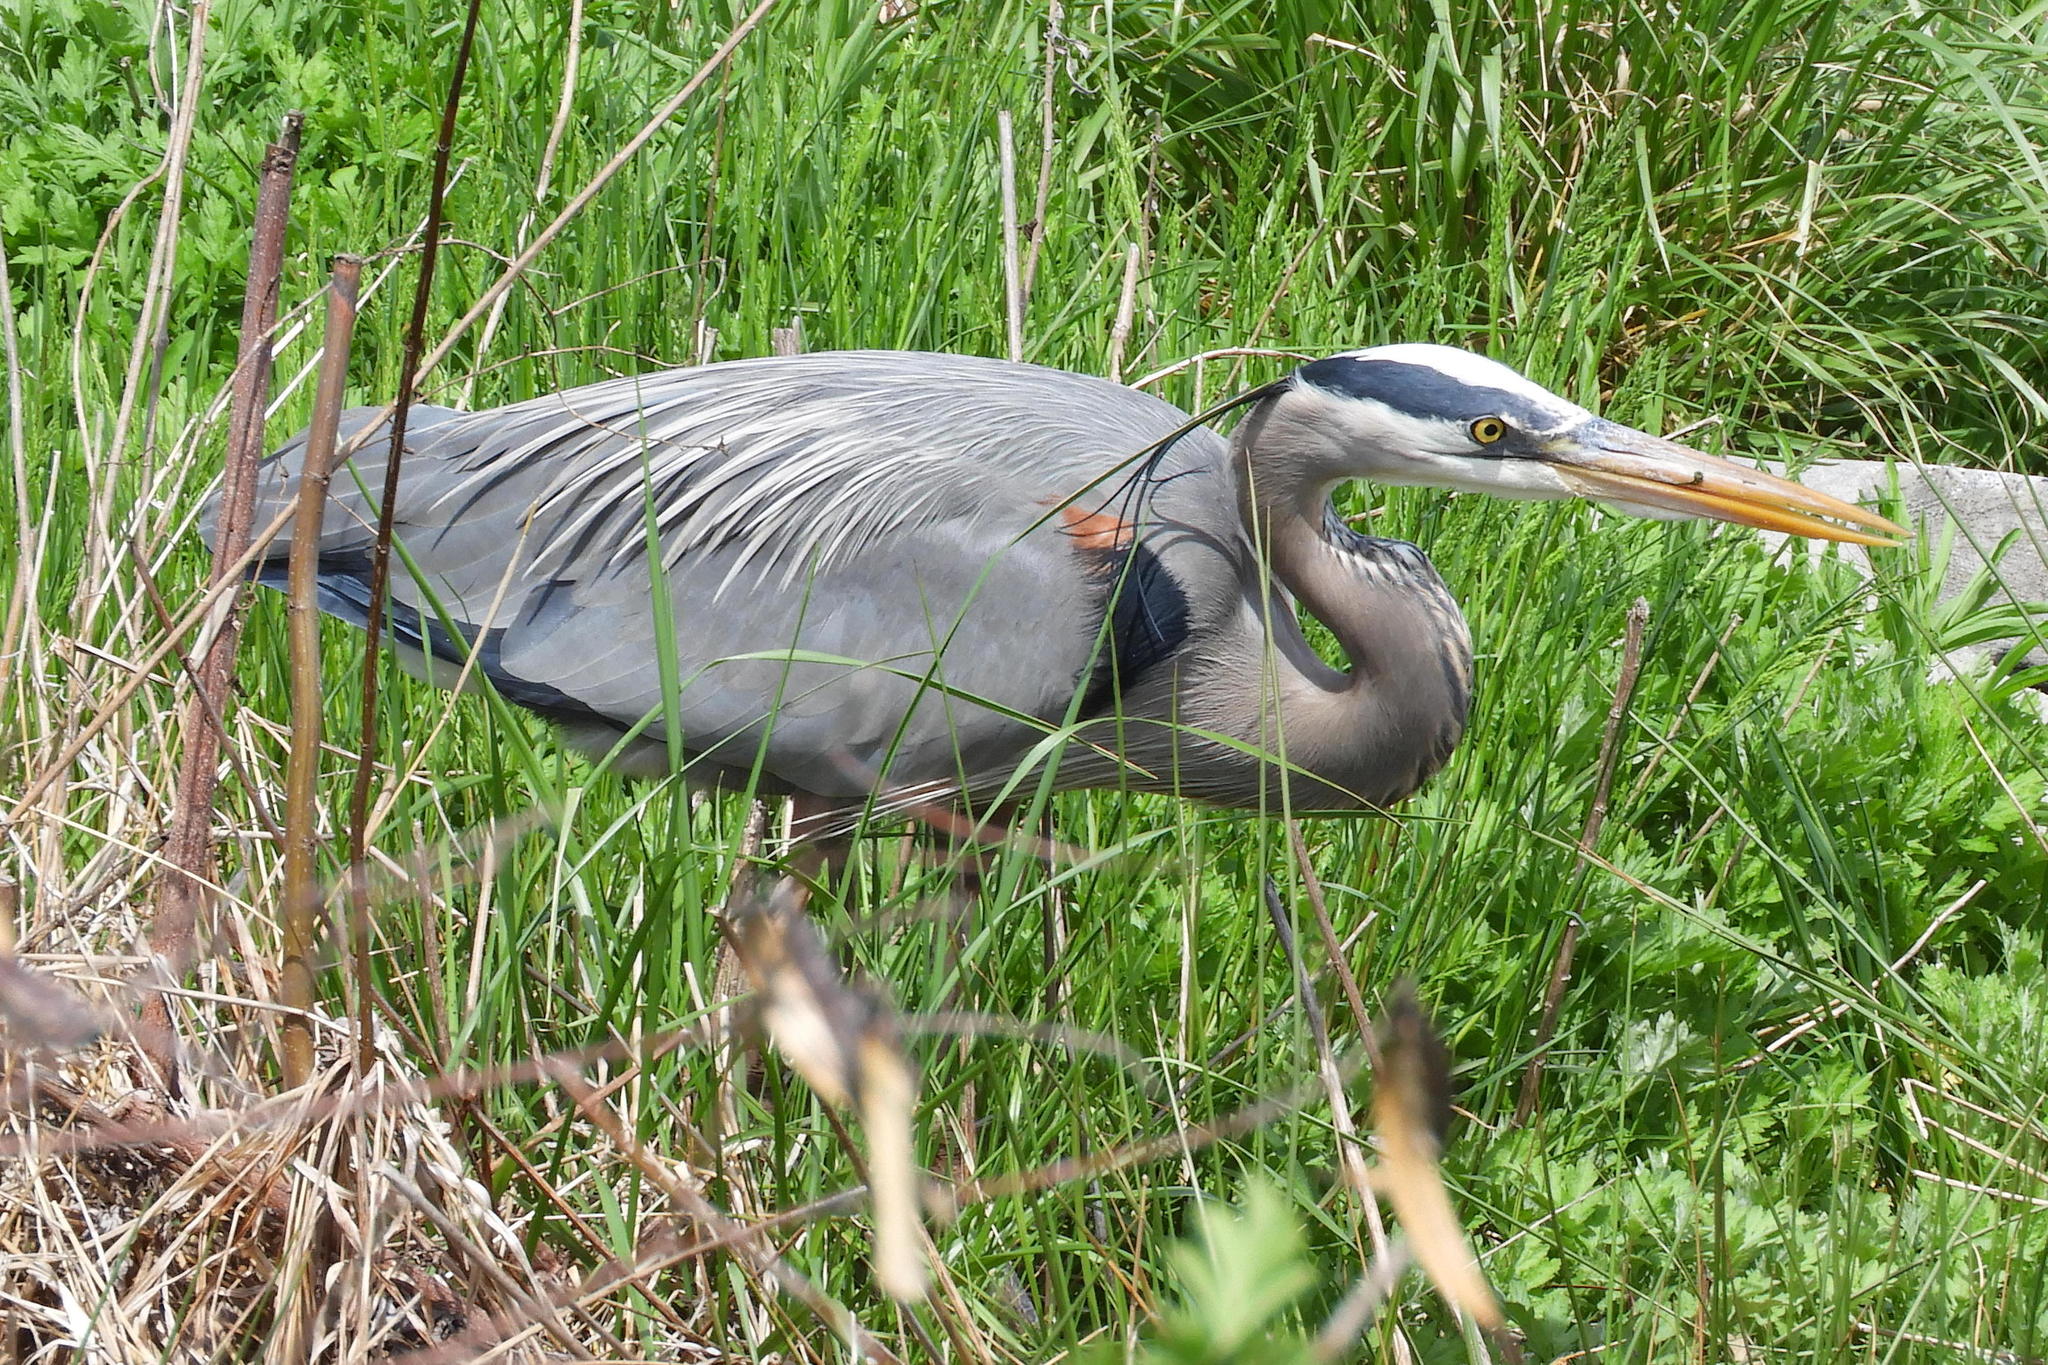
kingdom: Animalia
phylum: Chordata
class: Aves
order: Pelecaniformes
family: Ardeidae
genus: Ardea
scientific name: Ardea herodias
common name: Great blue heron
